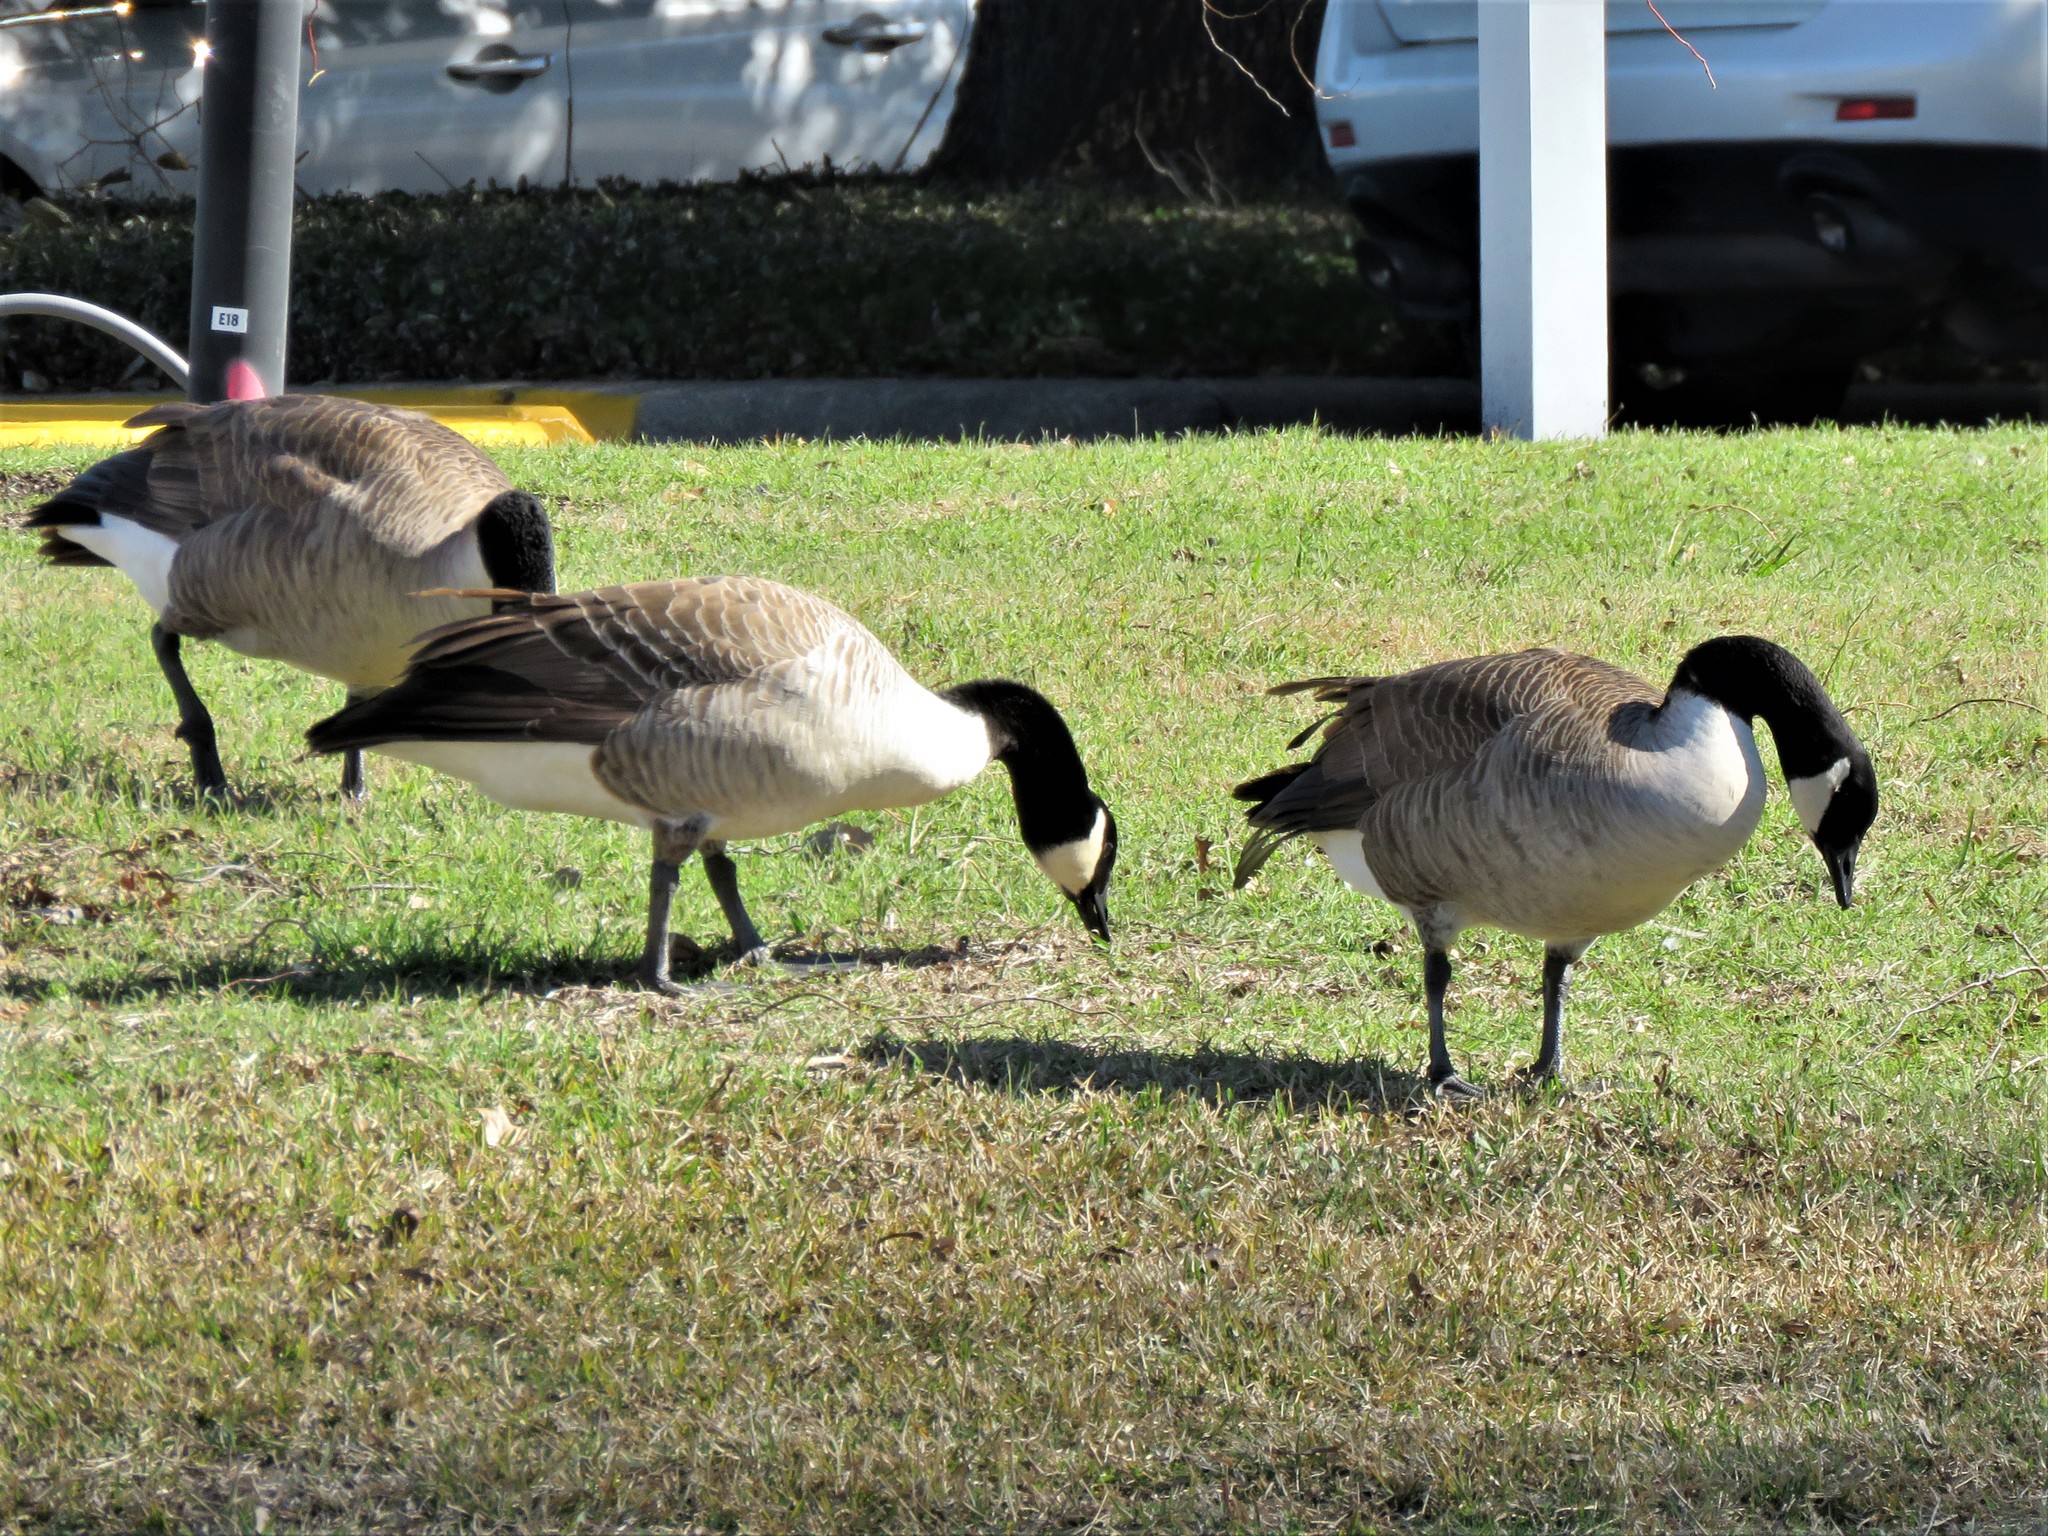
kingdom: Animalia
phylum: Chordata
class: Aves
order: Anseriformes
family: Anatidae
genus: Branta
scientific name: Branta canadensis
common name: Canada goose
